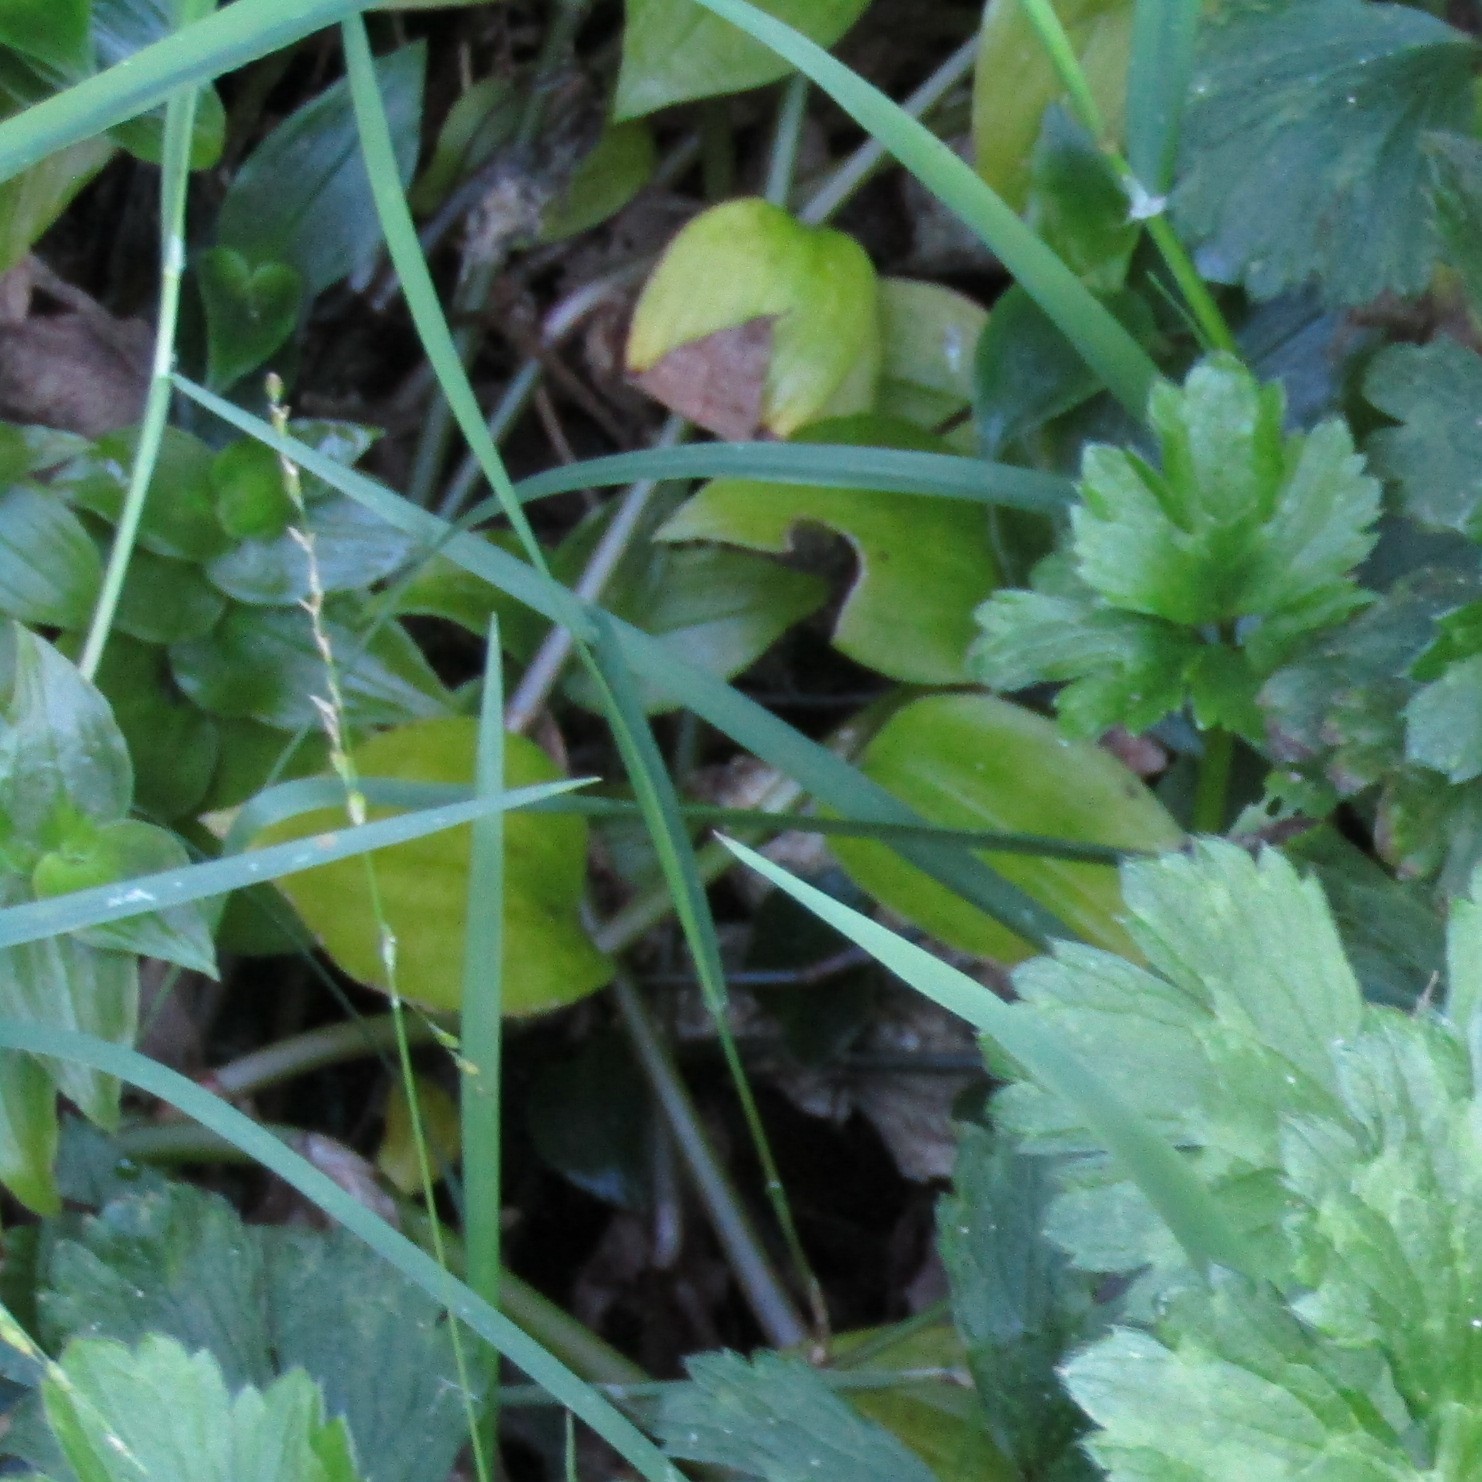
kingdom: Plantae
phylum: Tracheophyta
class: Liliopsida
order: Commelinales
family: Commelinaceae
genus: Tradescantia
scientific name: Tradescantia fluminensis
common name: Wandering-jew
